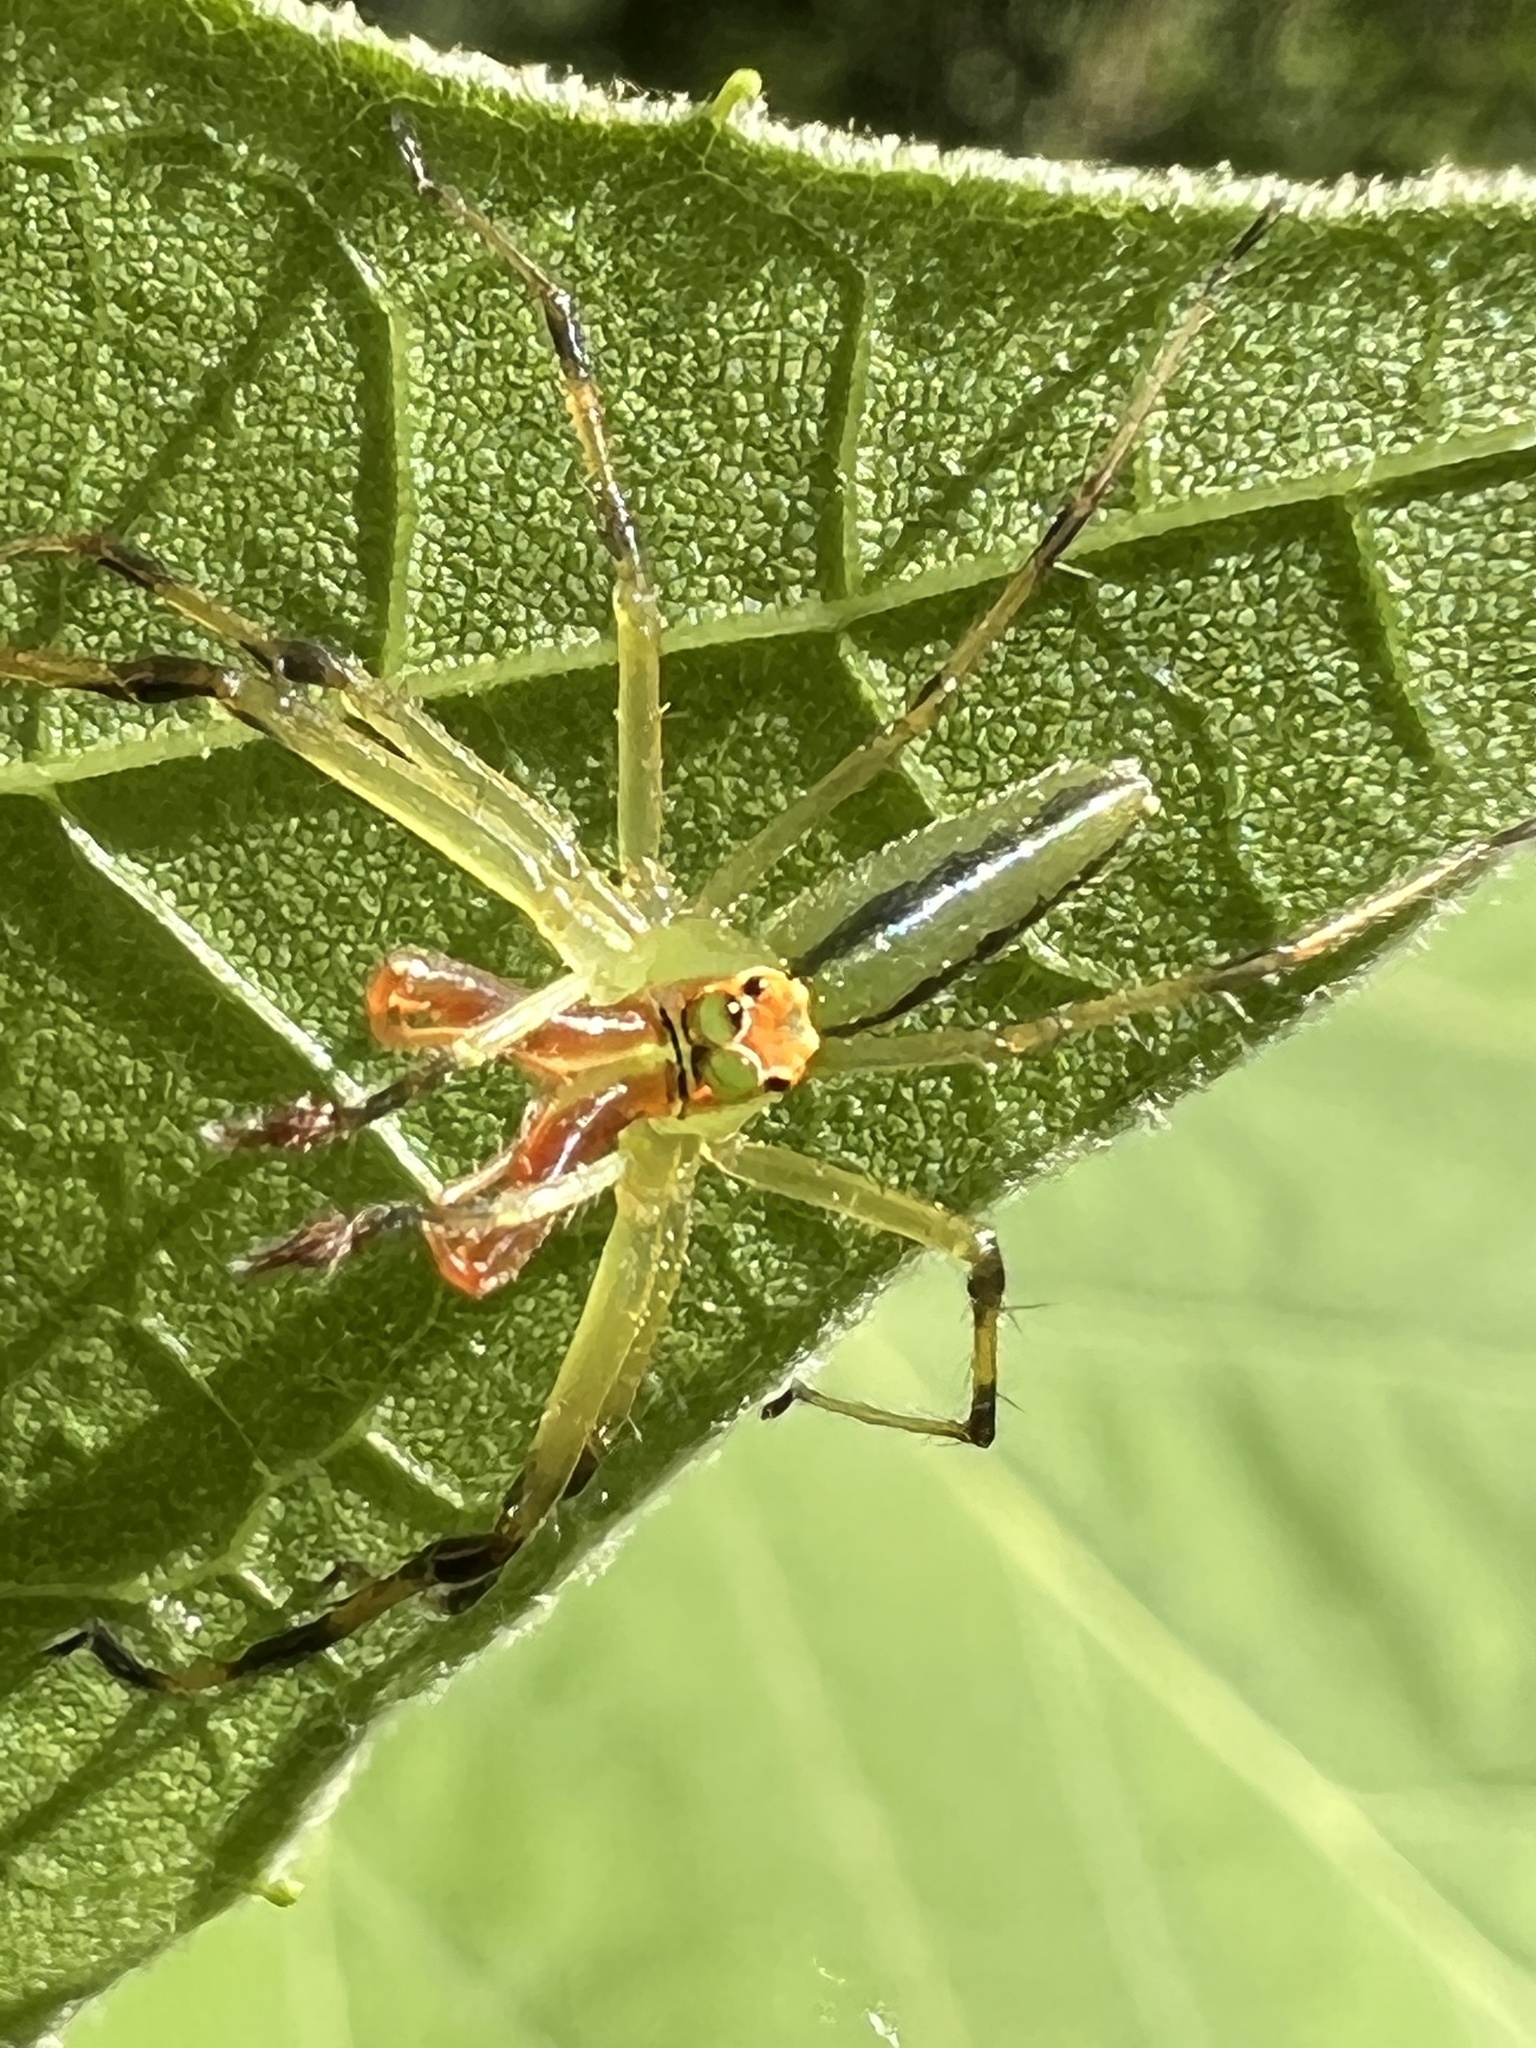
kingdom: Animalia
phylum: Arthropoda
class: Arachnida
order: Araneae
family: Salticidae
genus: Lyssomanes
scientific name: Lyssomanes viridis
